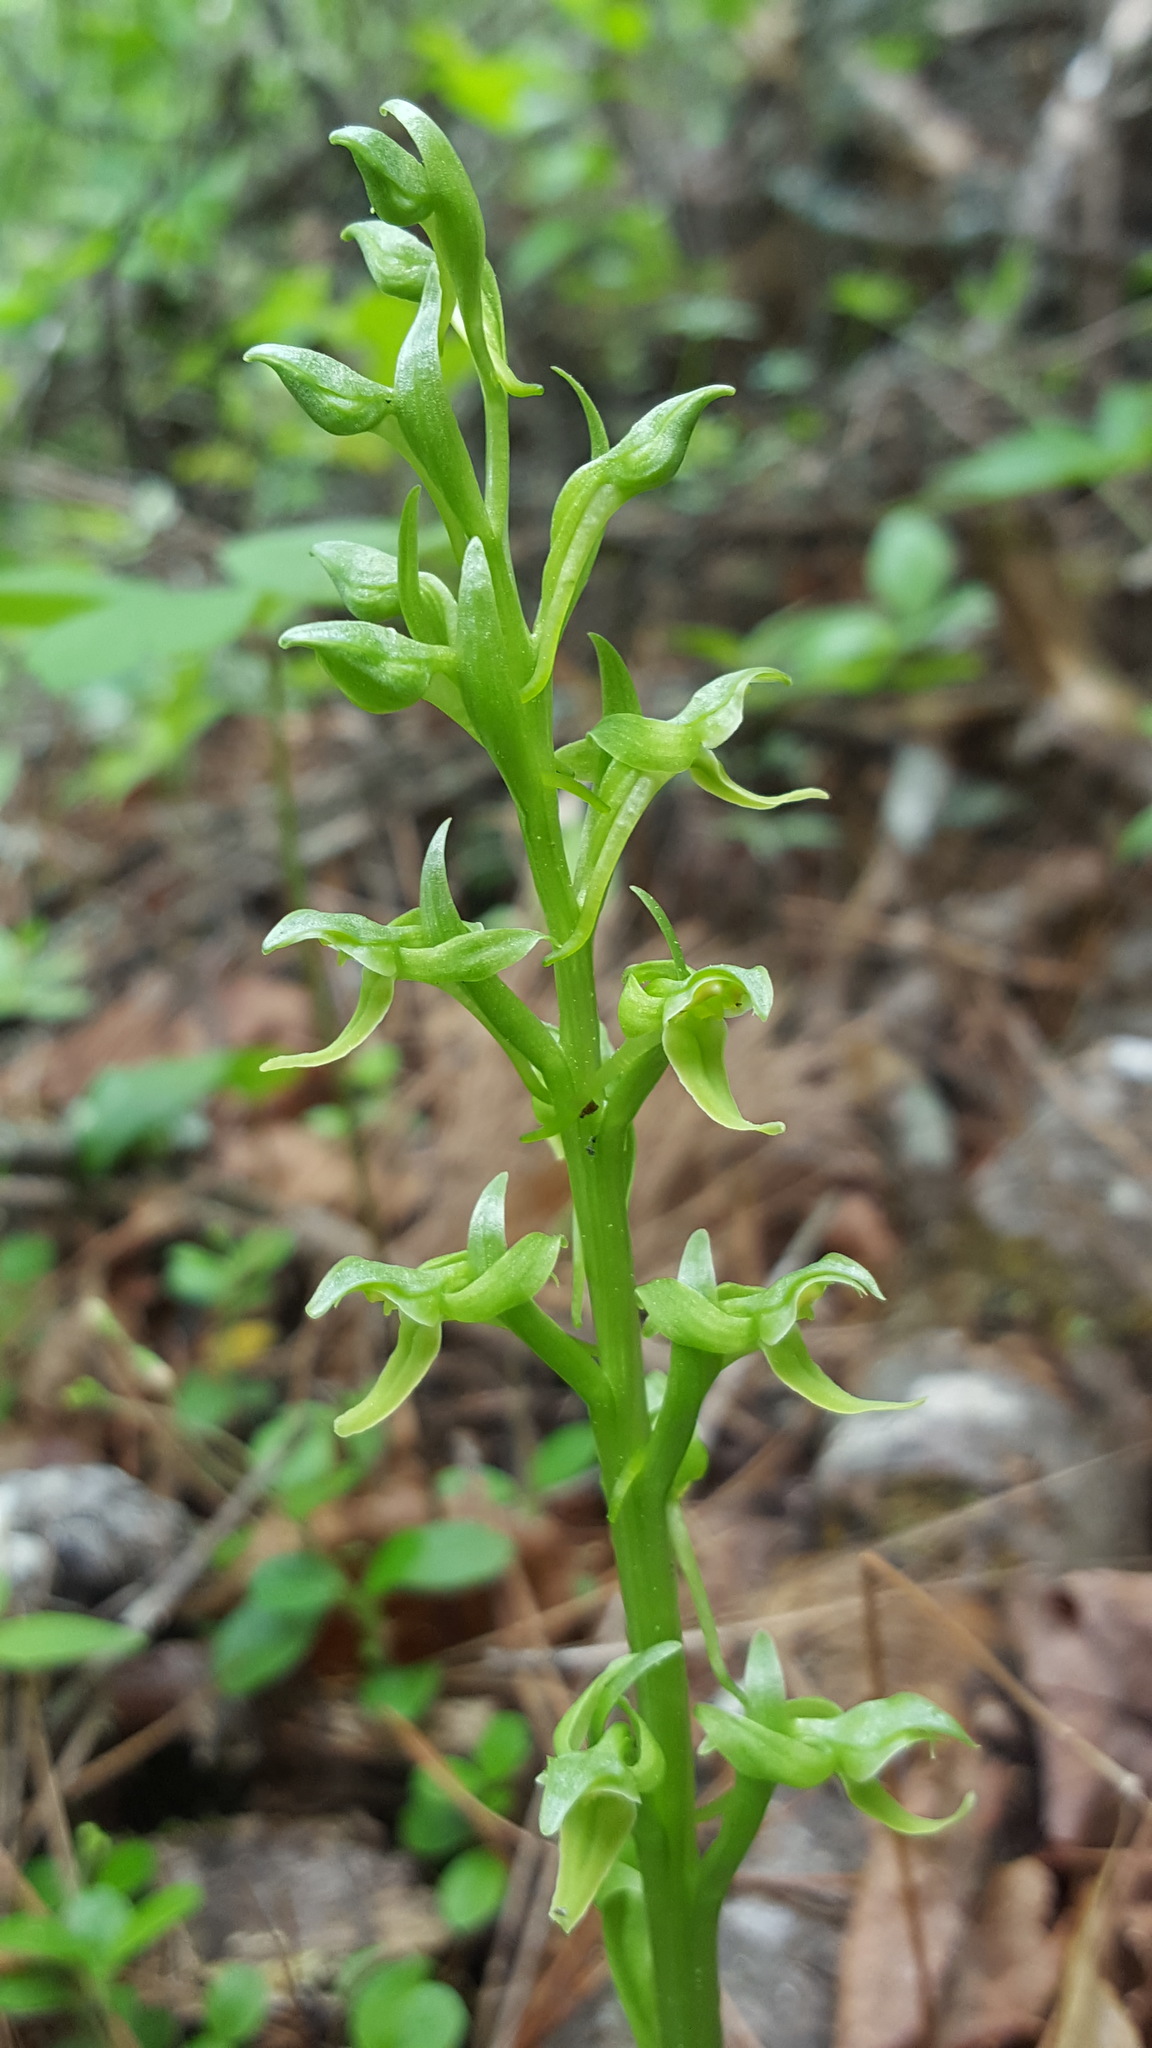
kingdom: Plantae
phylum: Tracheophyta
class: Liliopsida
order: Asparagales
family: Orchidaceae
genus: Platanthera
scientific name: Platanthera hookeri
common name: Hooker's orchid
